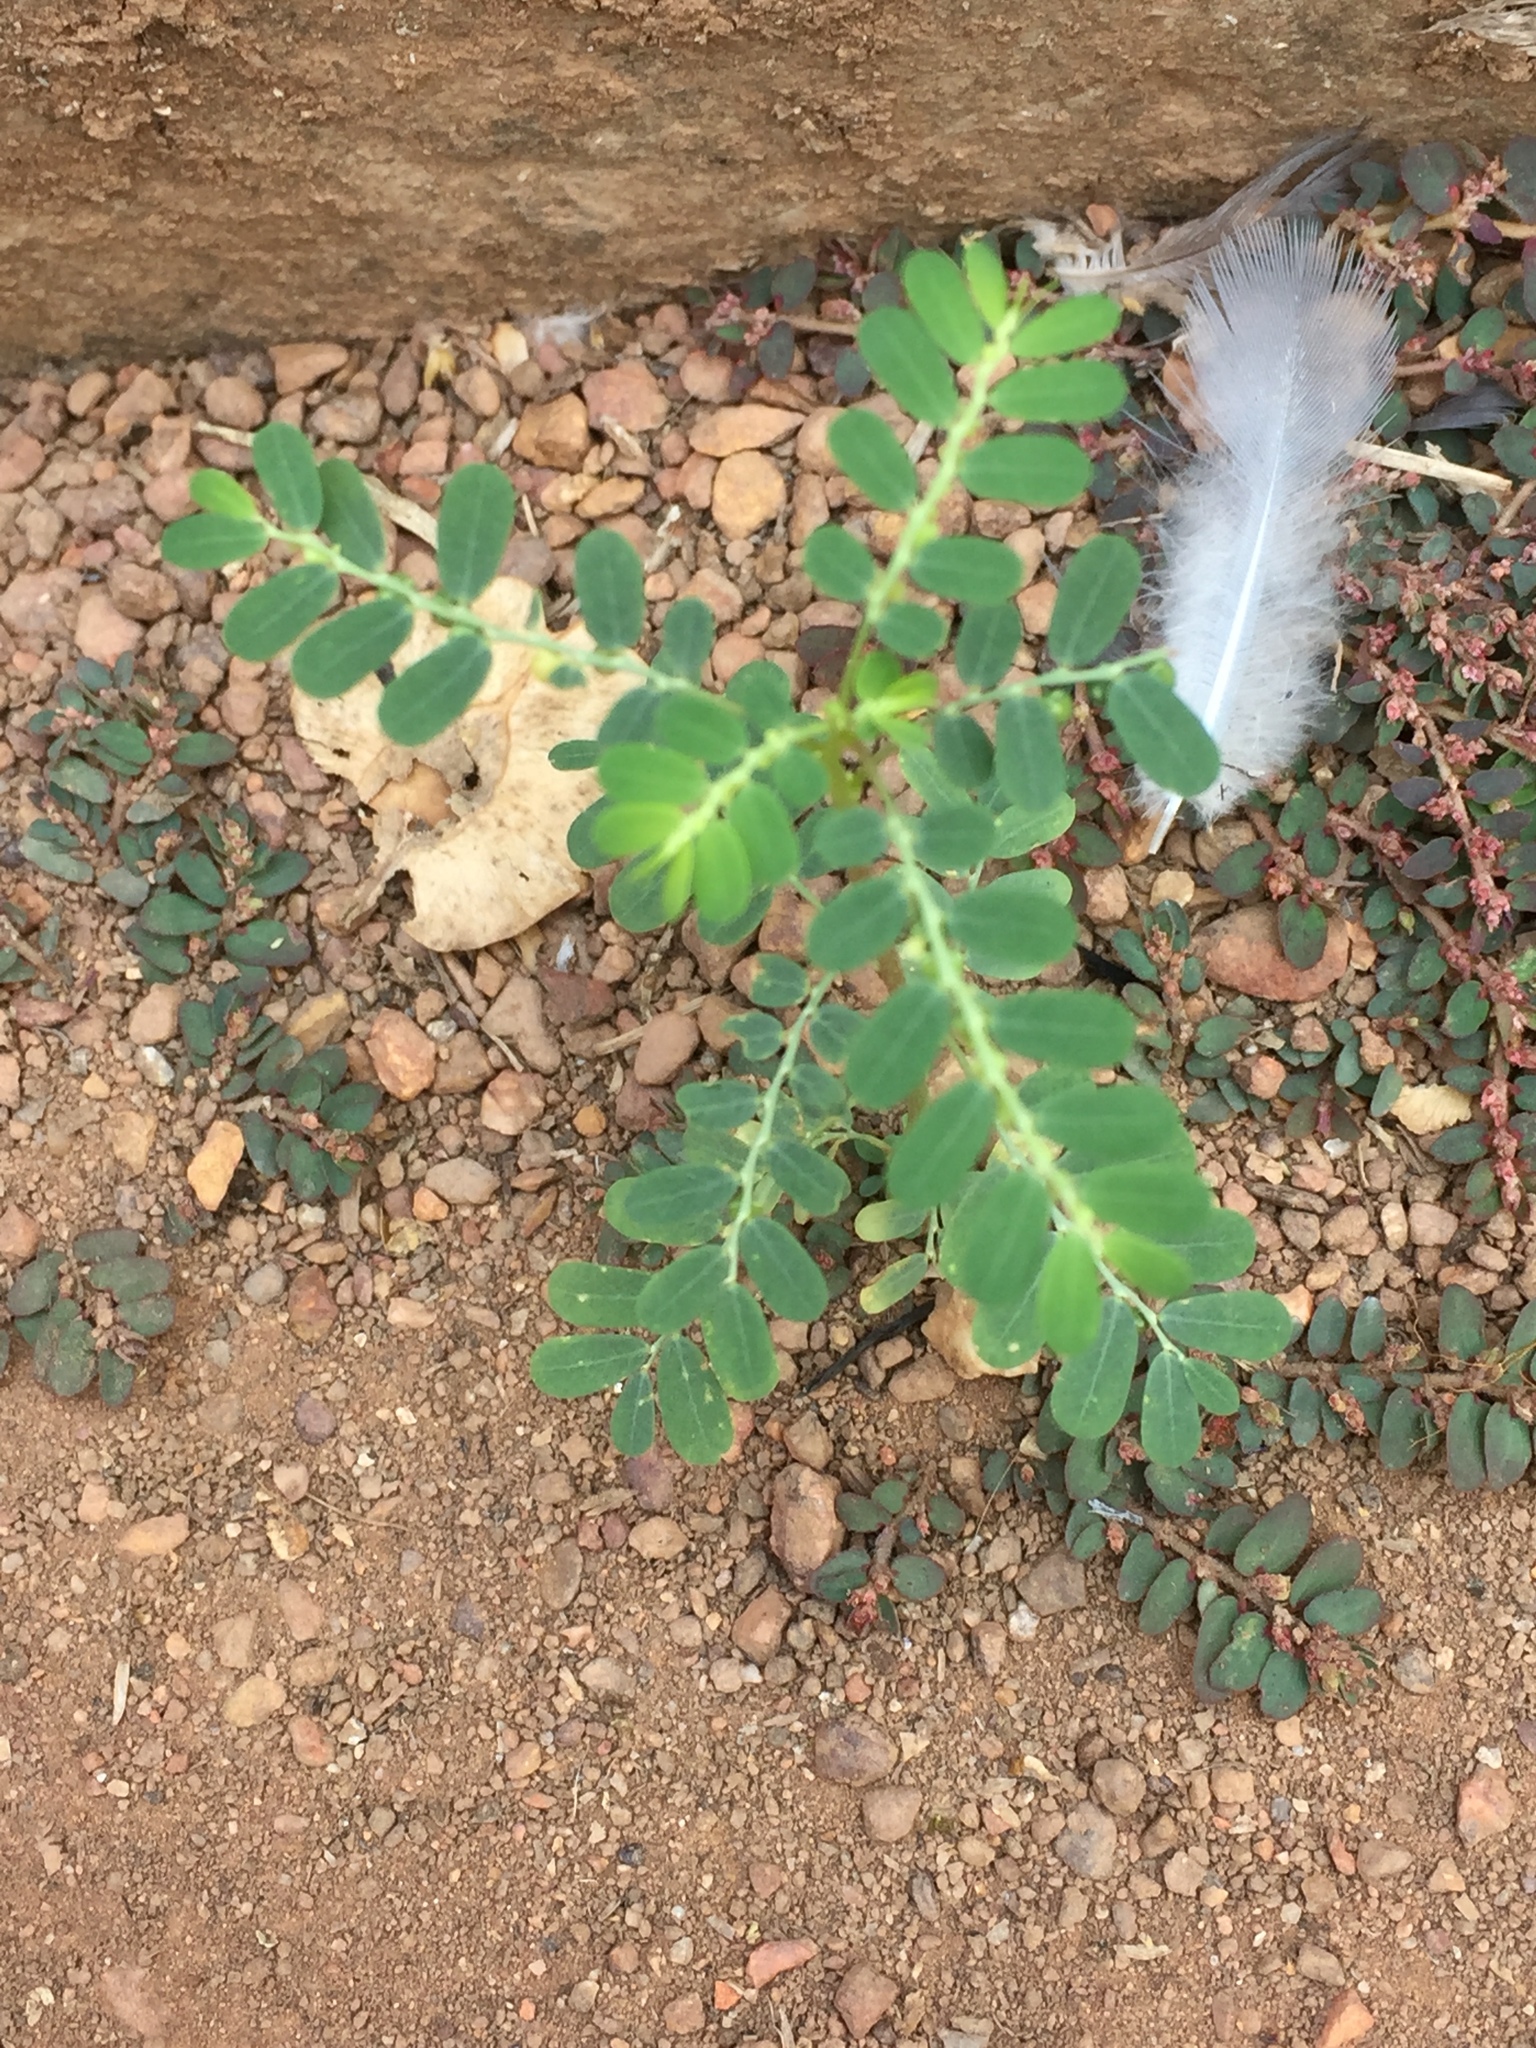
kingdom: Plantae
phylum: Tracheophyta
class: Magnoliopsida
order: Malpighiales
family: Euphorbiaceae
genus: Euphorbia
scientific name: Euphorbia thymifolia
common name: Gulf sandmat
